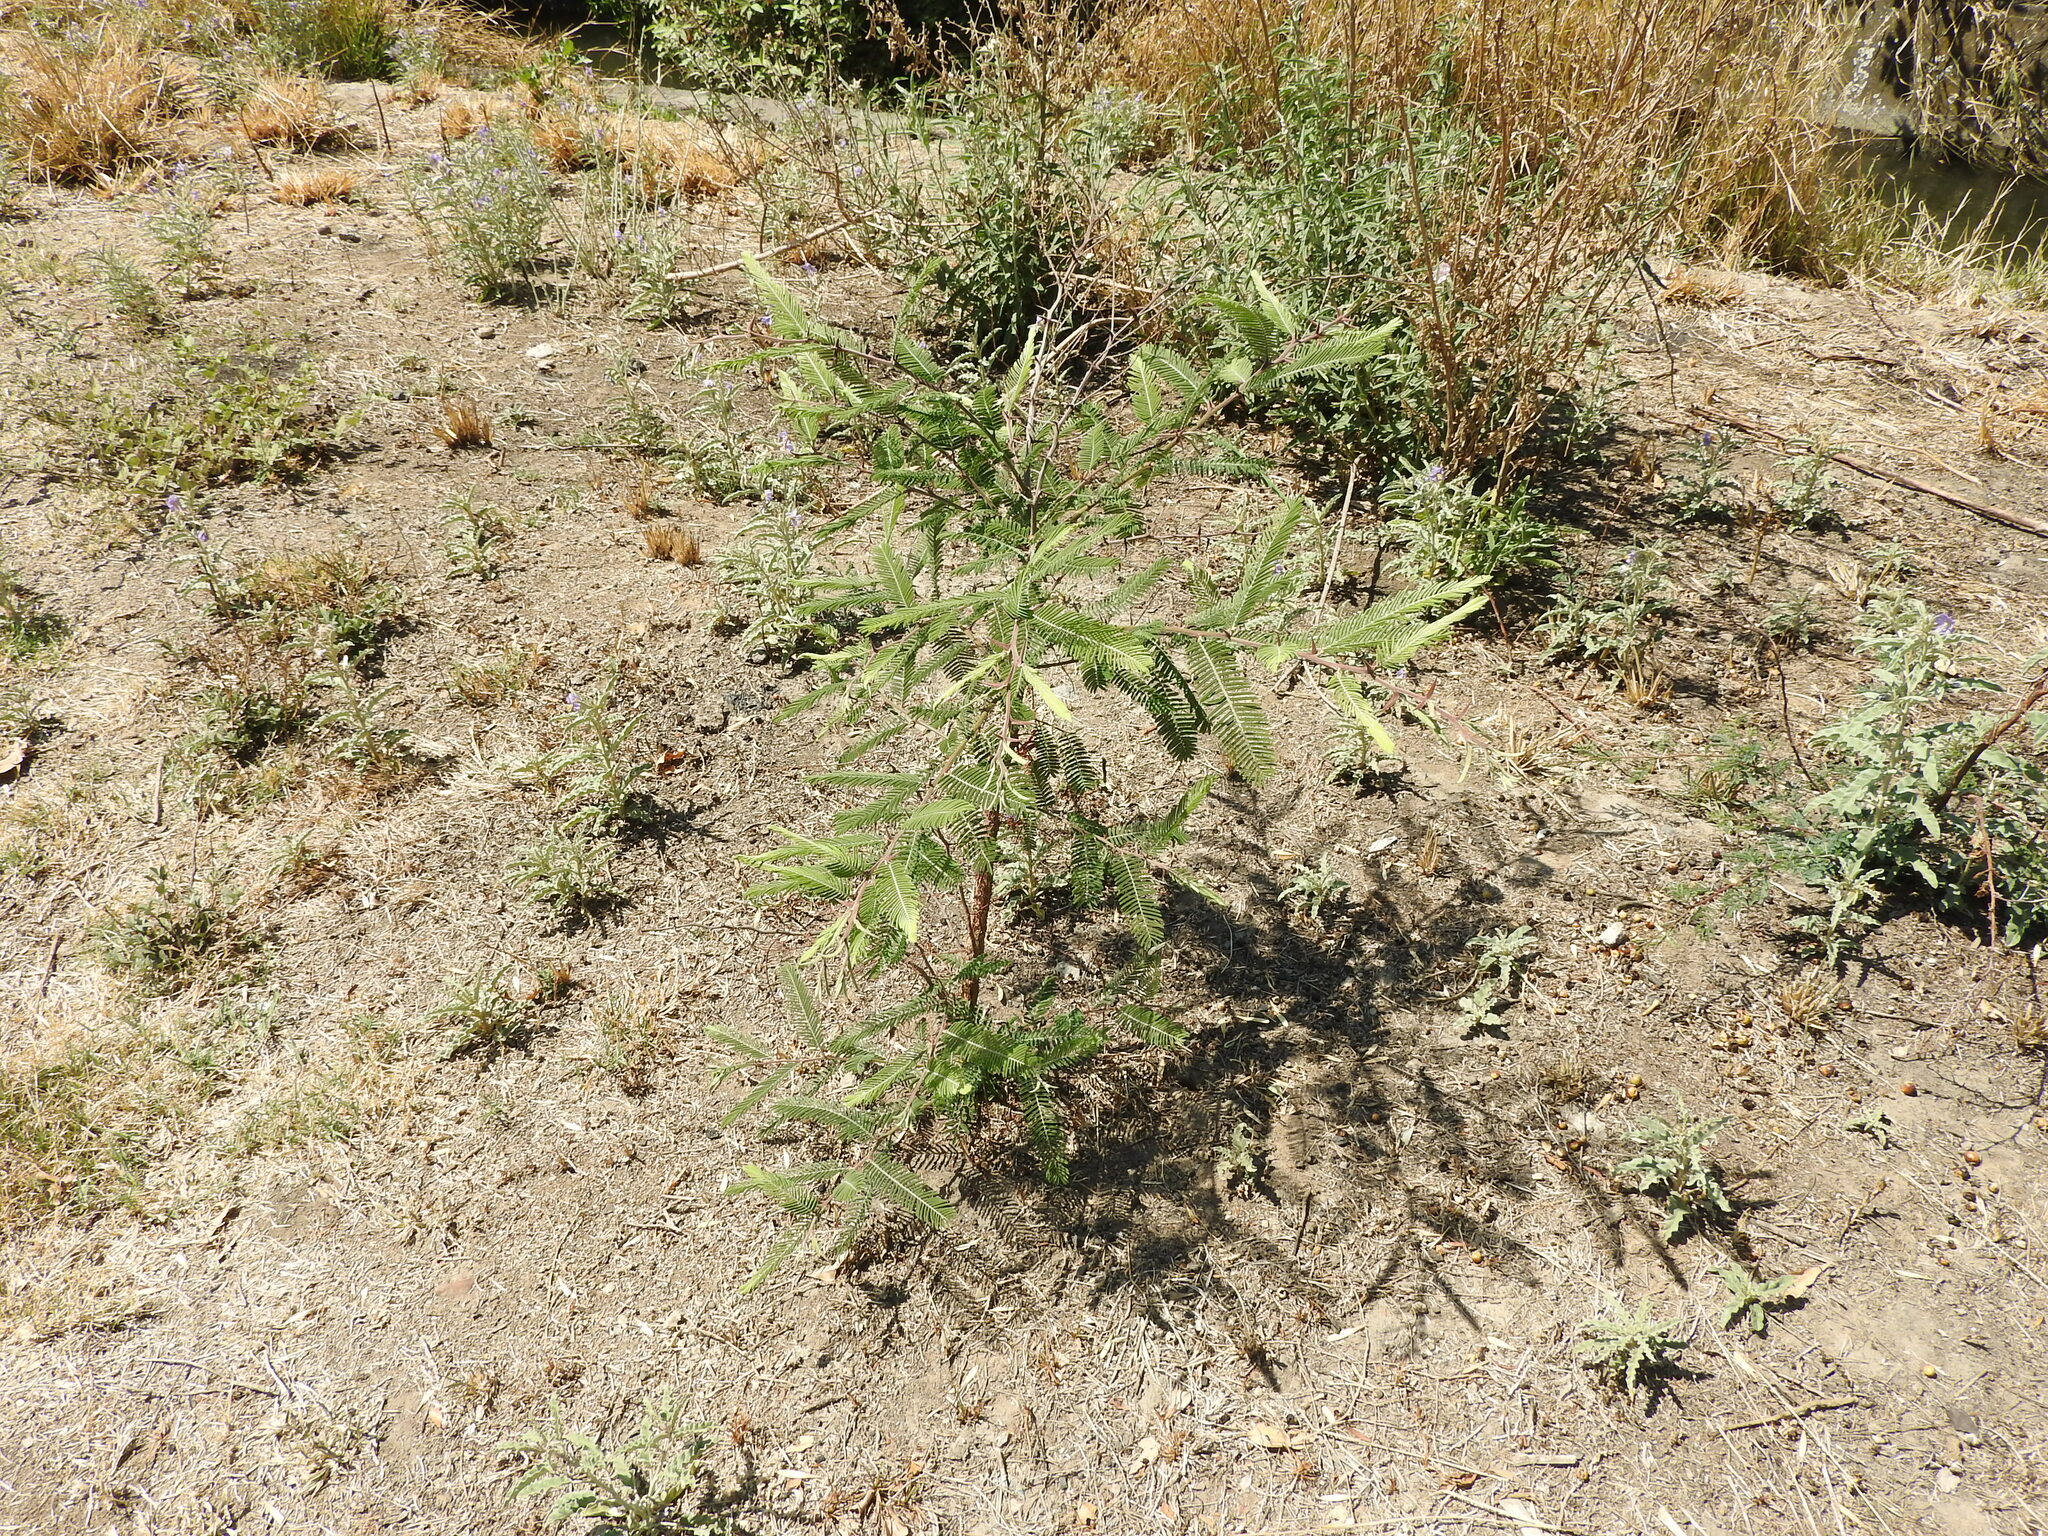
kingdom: Plantae
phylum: Tracheophyta
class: Magnoliopsida
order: Fabales
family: Fabaceae
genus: Vachellia
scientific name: Vachellia pennatula
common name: Fern-leaf acacia
